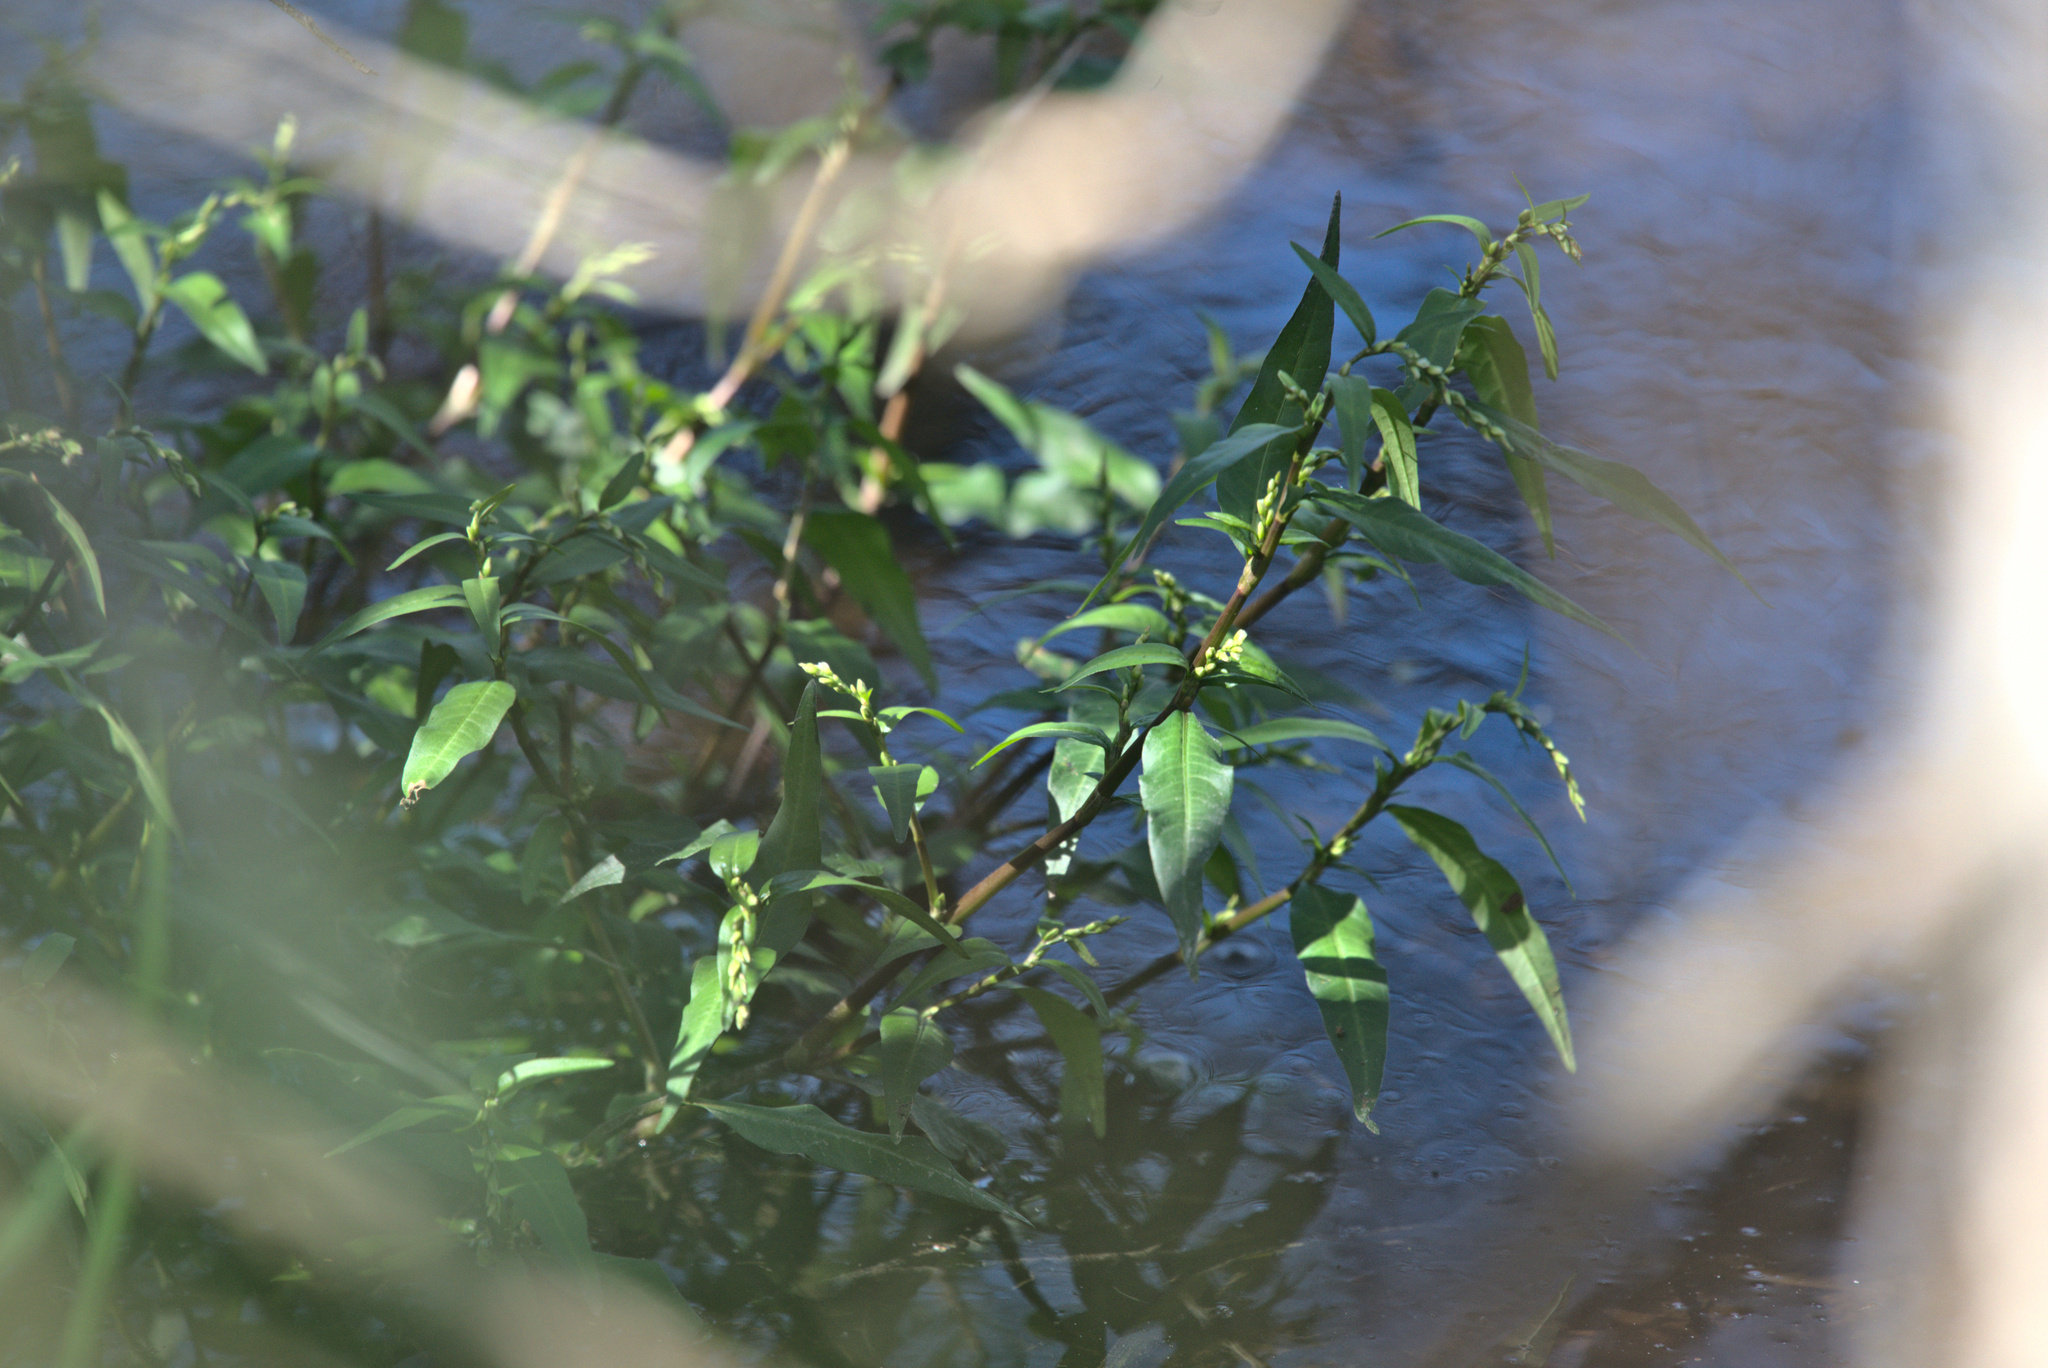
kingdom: Plantae
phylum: Tracheophyta
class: Magnoliopsida
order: Caryophyllales
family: Polygonaceae
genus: Persicaria
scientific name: Persicaria hydropiper
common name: Water-pepper
